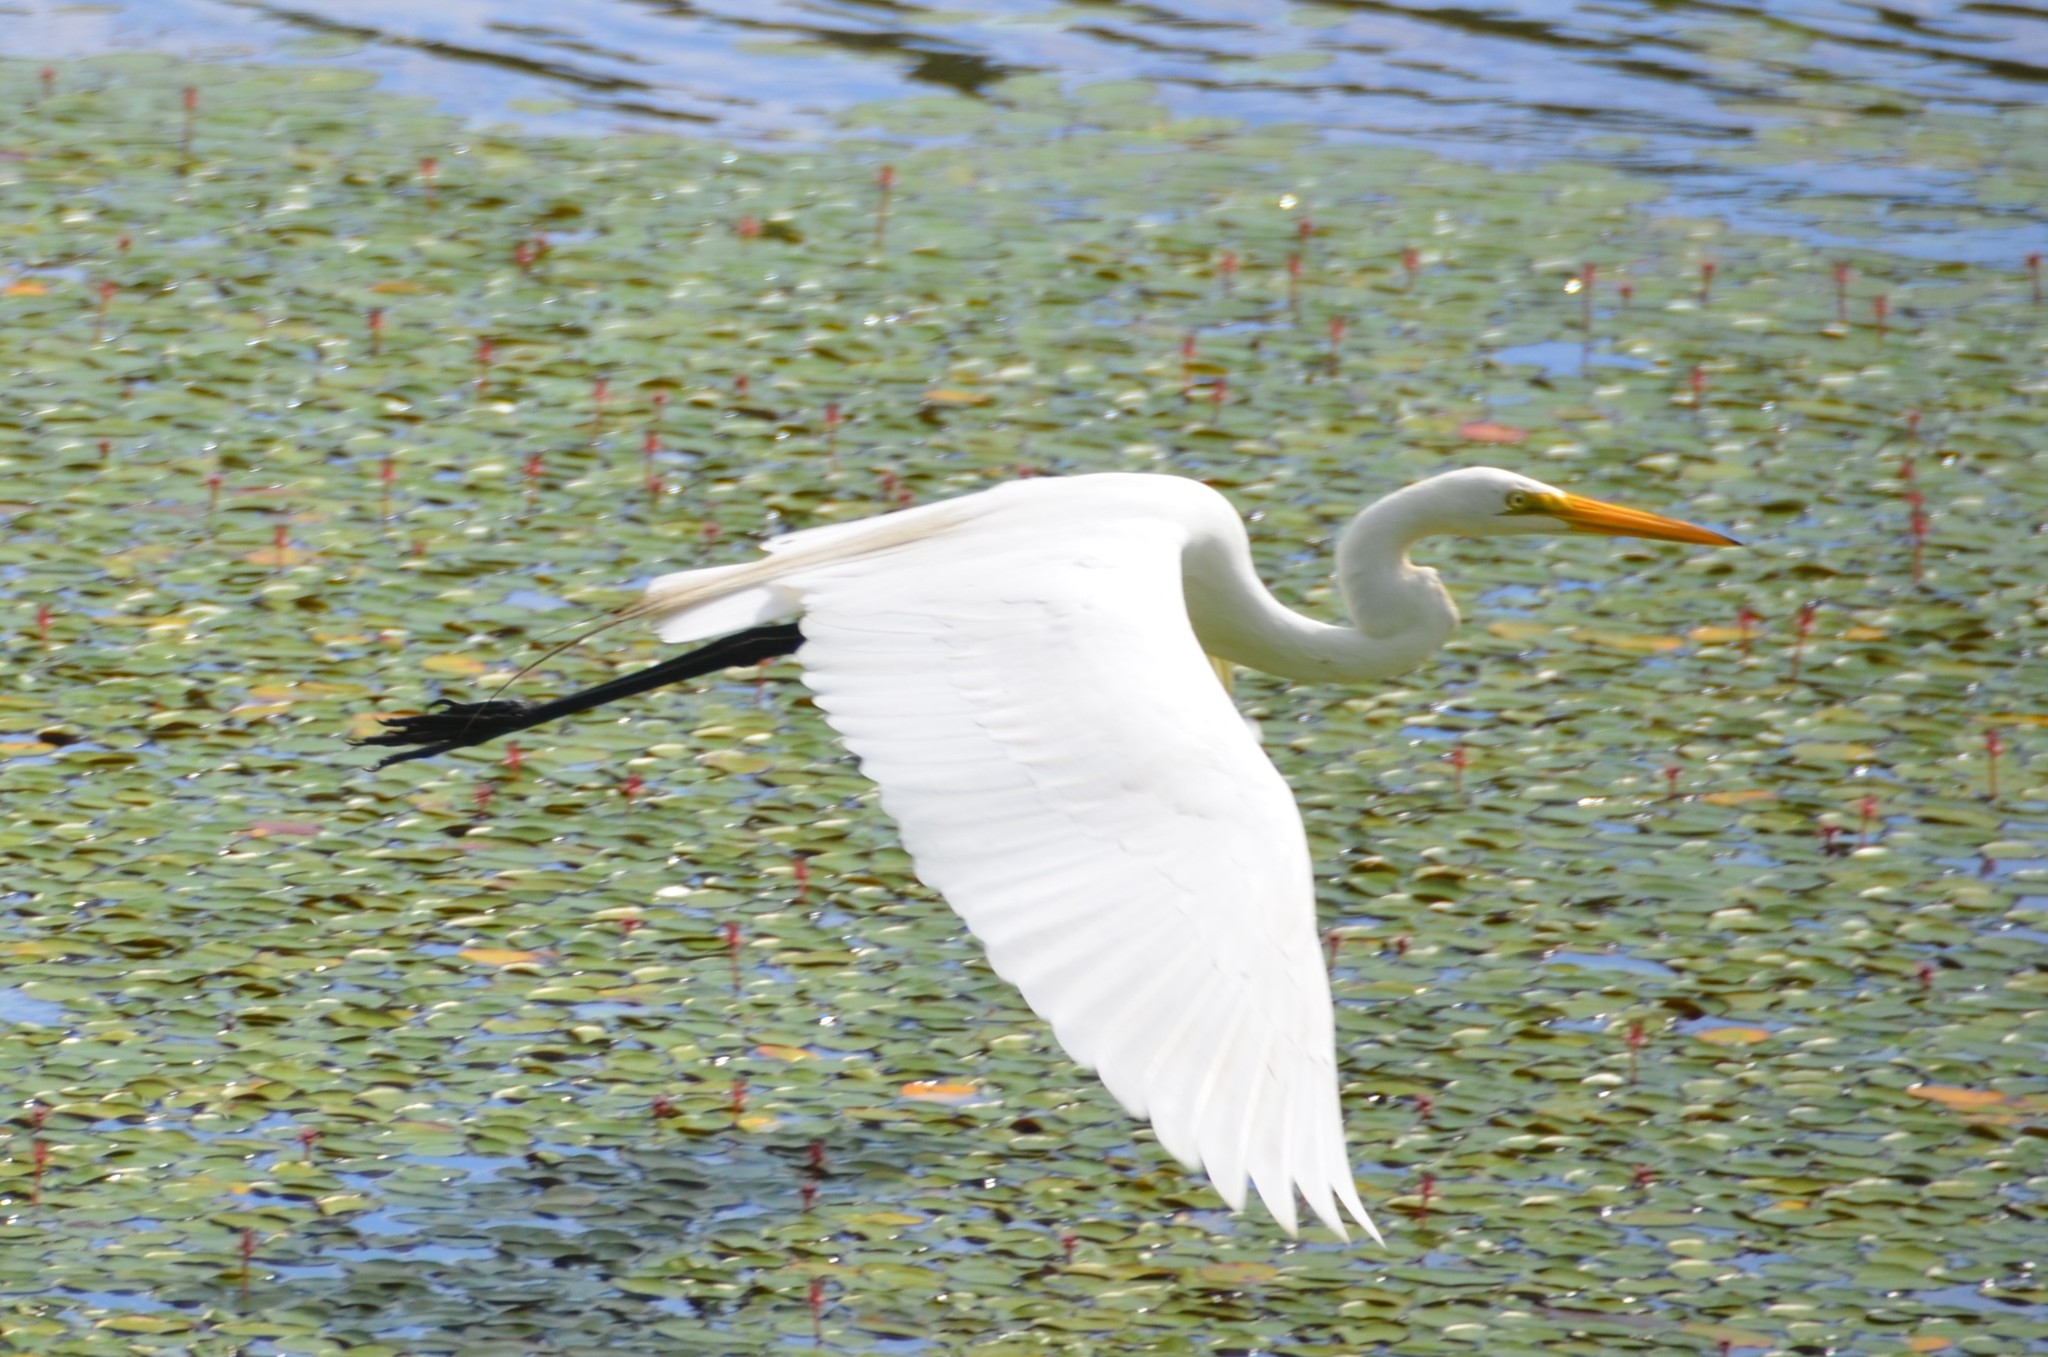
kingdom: Animalia
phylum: Chordata
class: Aves
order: Pelecaniformes
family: Ardeidae
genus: Ardea
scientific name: Ardea alba
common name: Great egret
